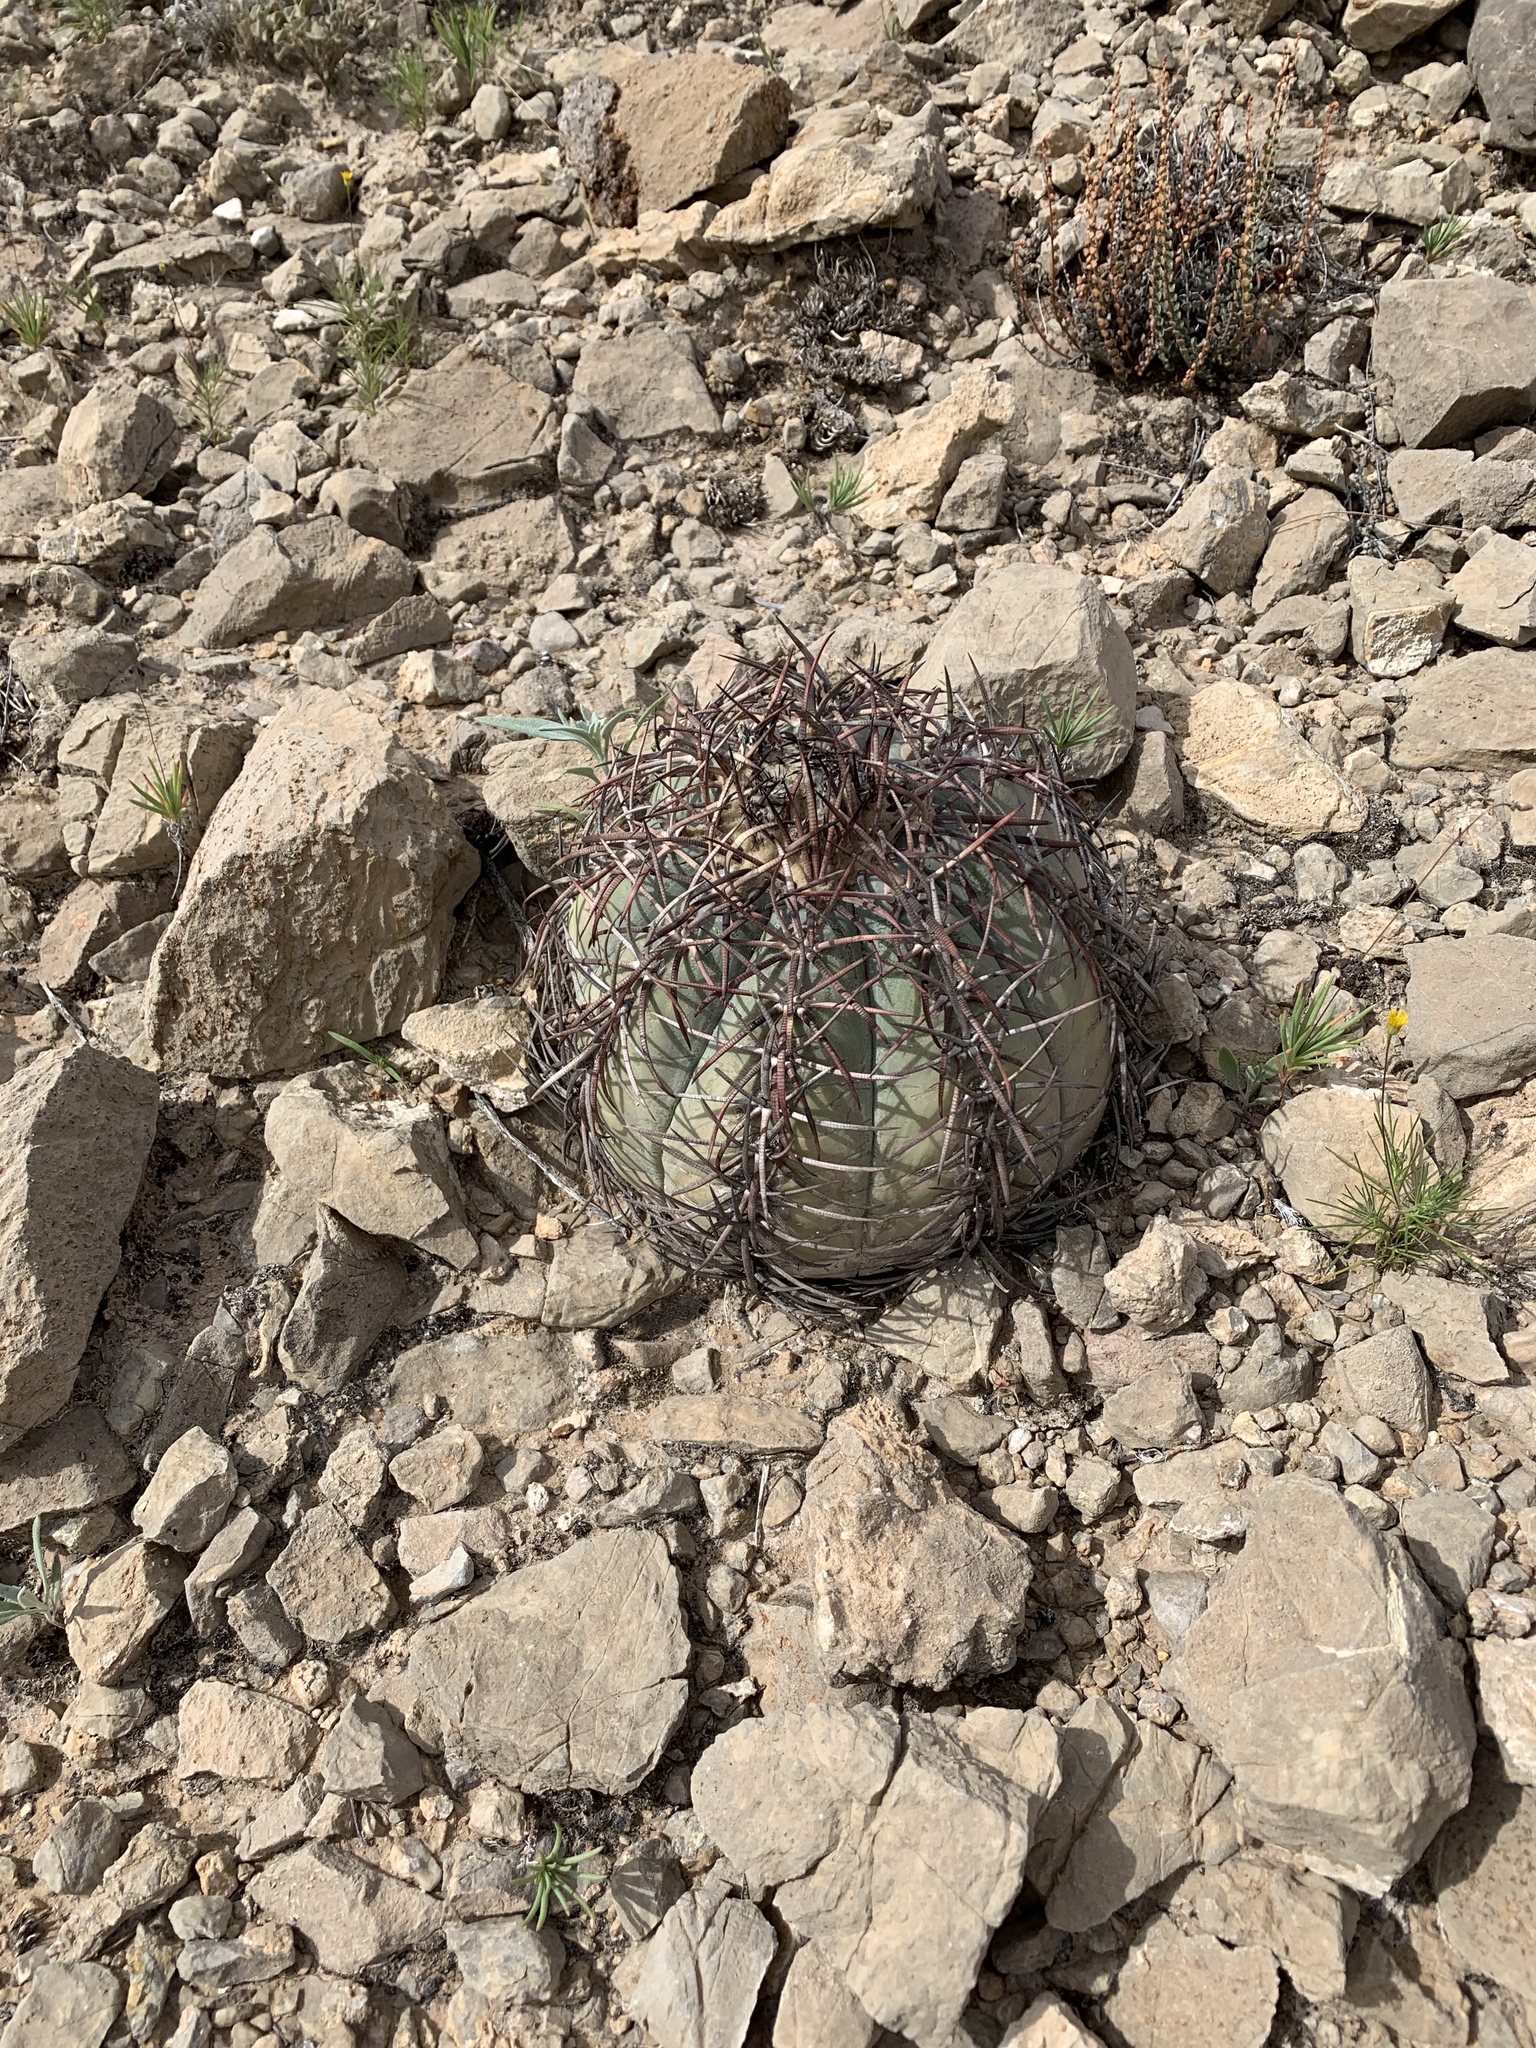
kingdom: Plantae
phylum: Tracheophyta
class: Magnoliopsida
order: Caryophyllales
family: Cactaceae
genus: Echinocactus
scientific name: Echinocactus horizonthalonius
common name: Devilshead
